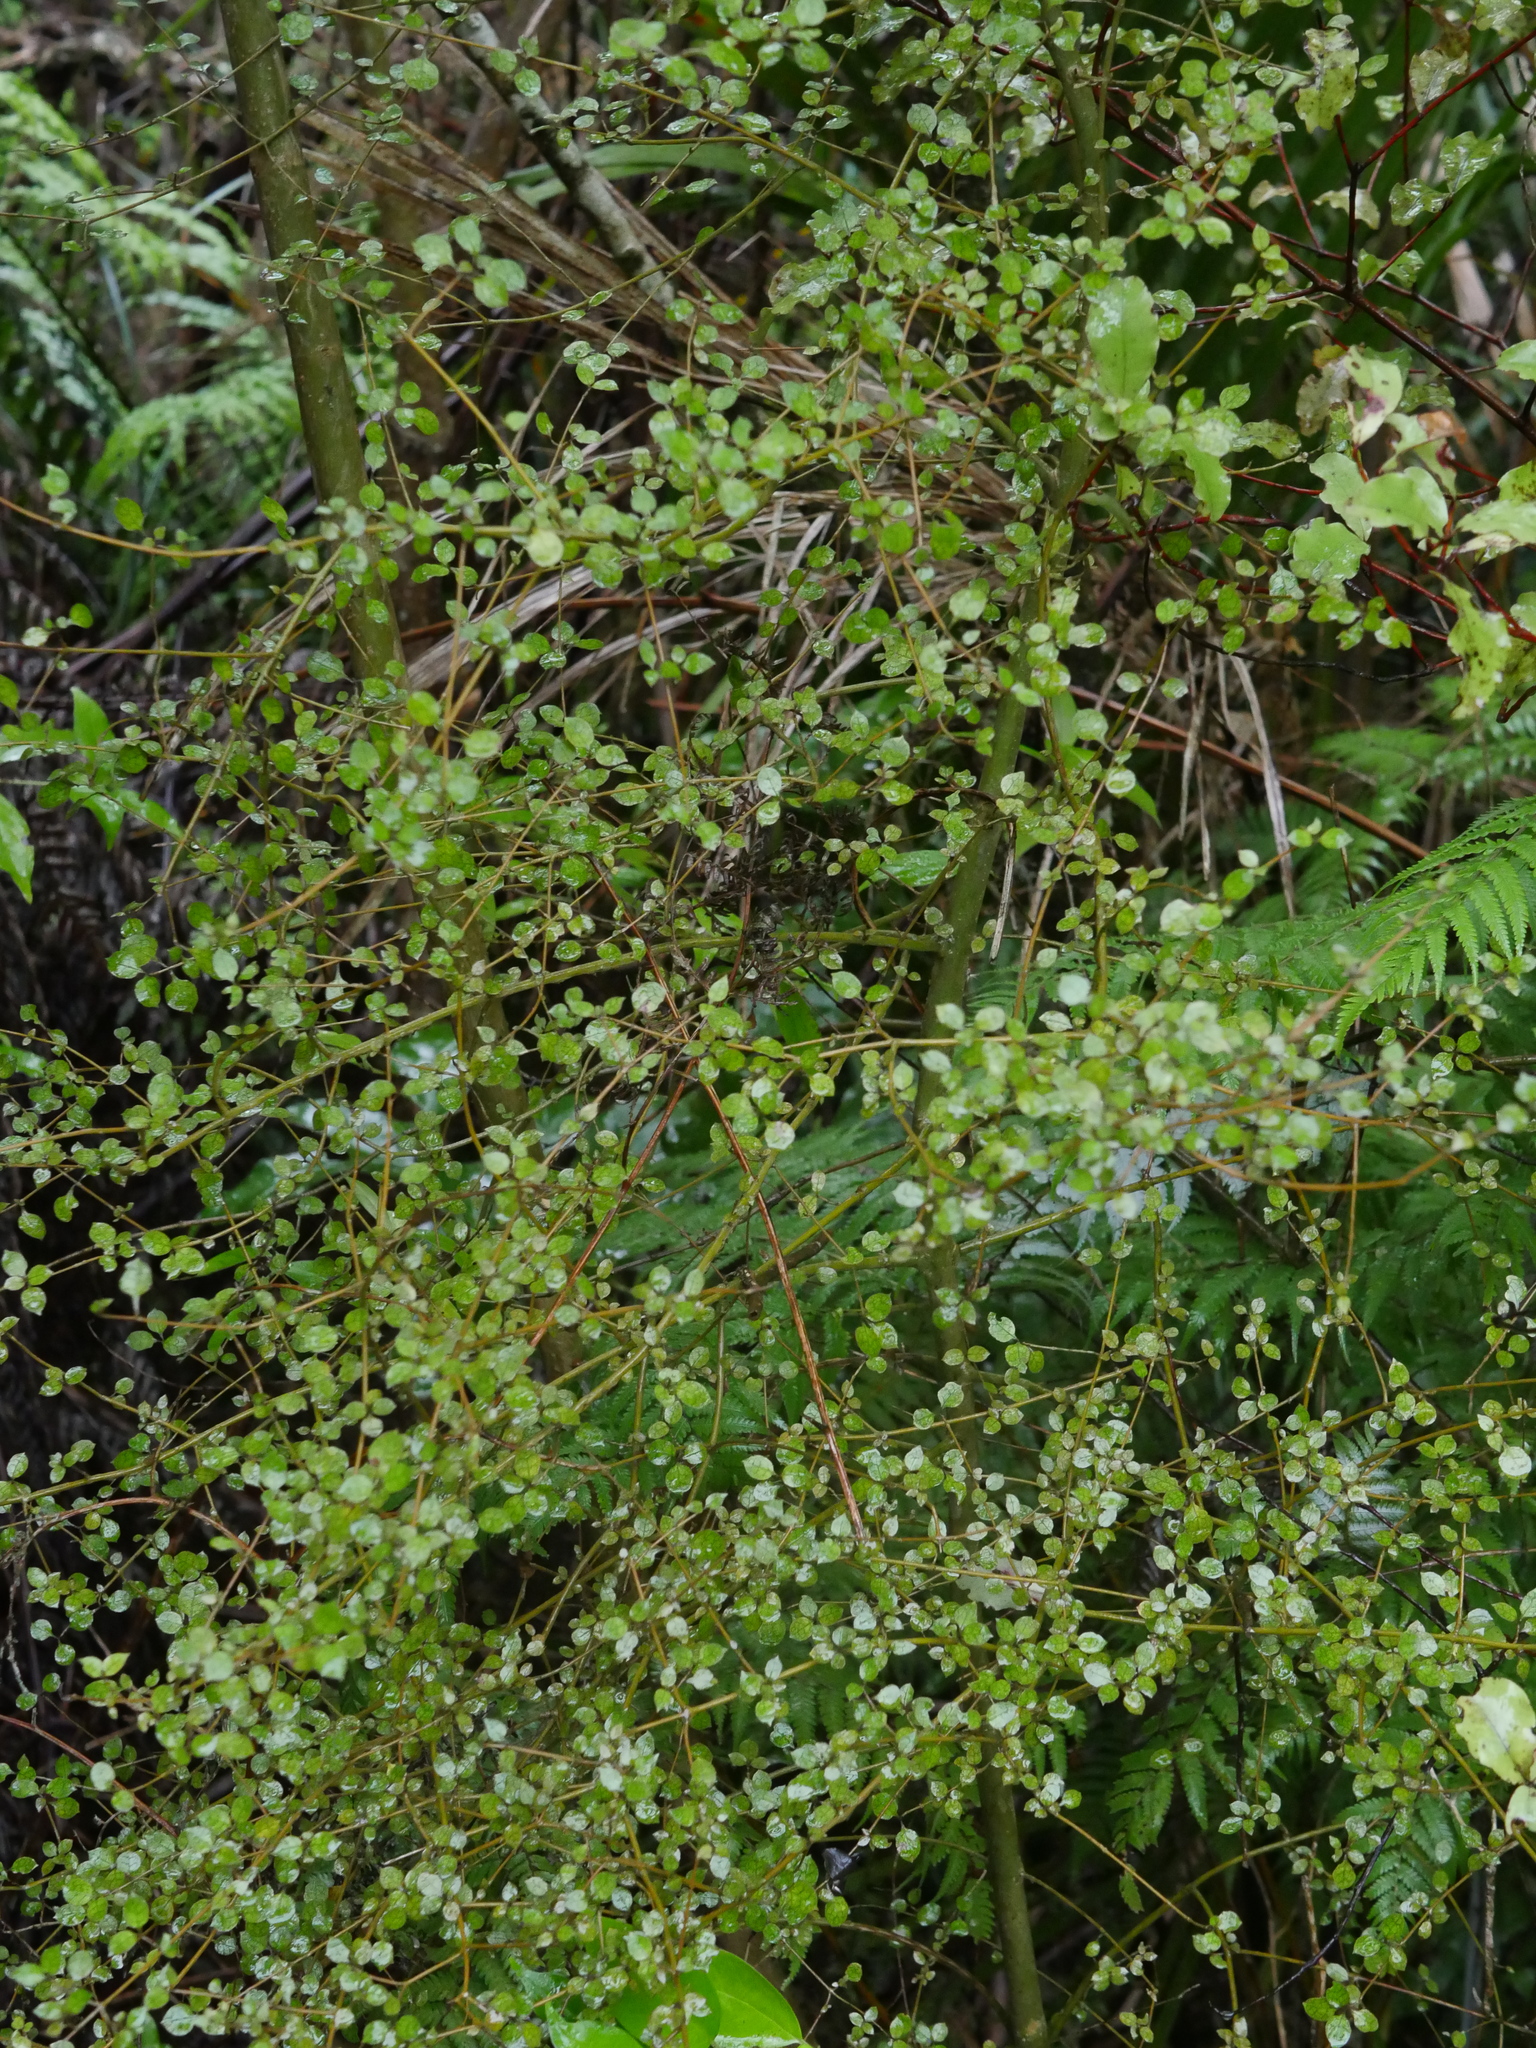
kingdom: Plantae
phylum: Tracheophyta
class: Magnoliopsida
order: Gentianales
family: Rubiaceae
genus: Coprosma
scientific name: Coprosma areolata
